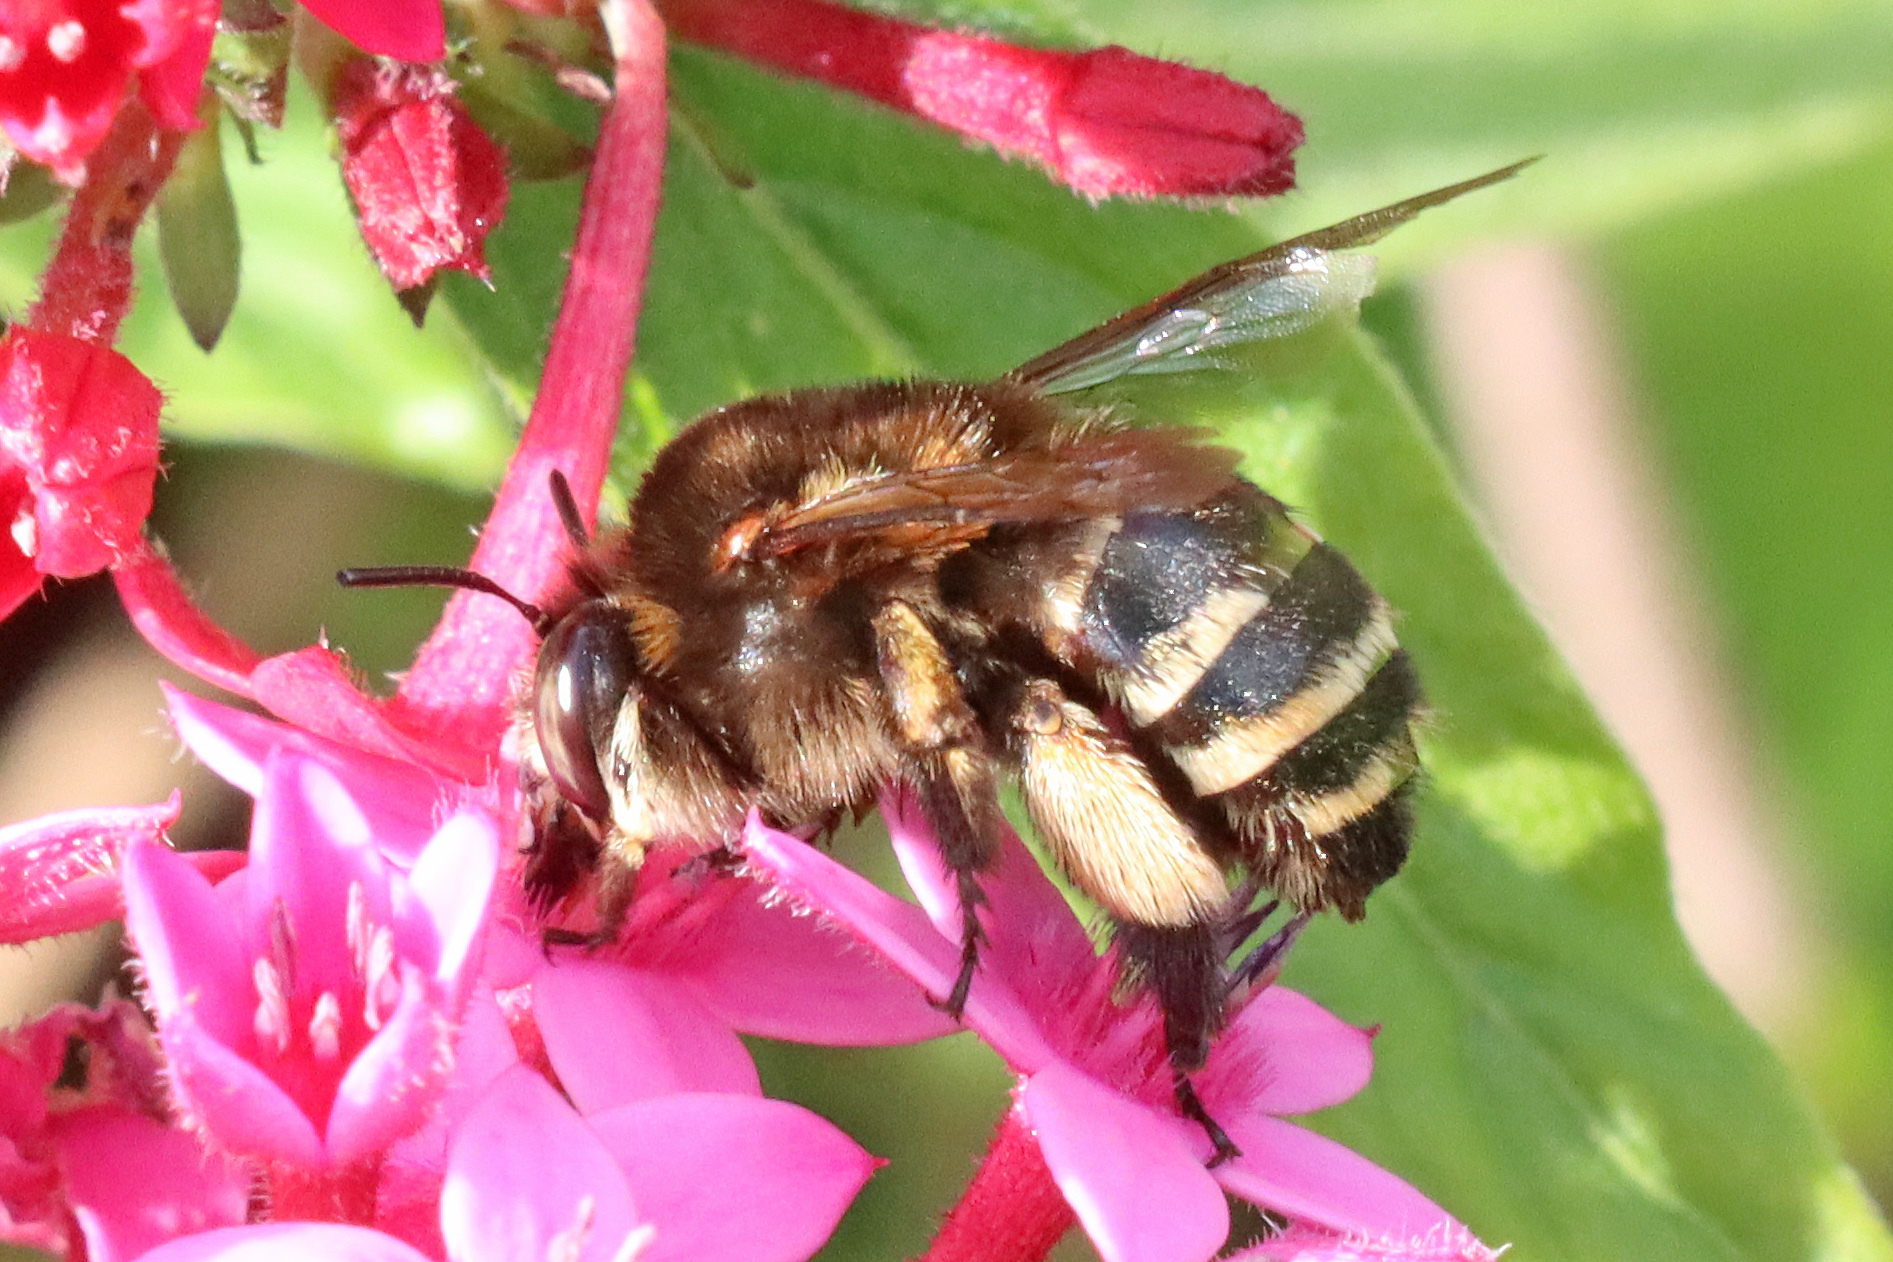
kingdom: Animalia
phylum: Arthropoda
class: Insecta
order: Hymenoptera
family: Apidae
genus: Amegilla
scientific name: Amegilla quadrifasciata
